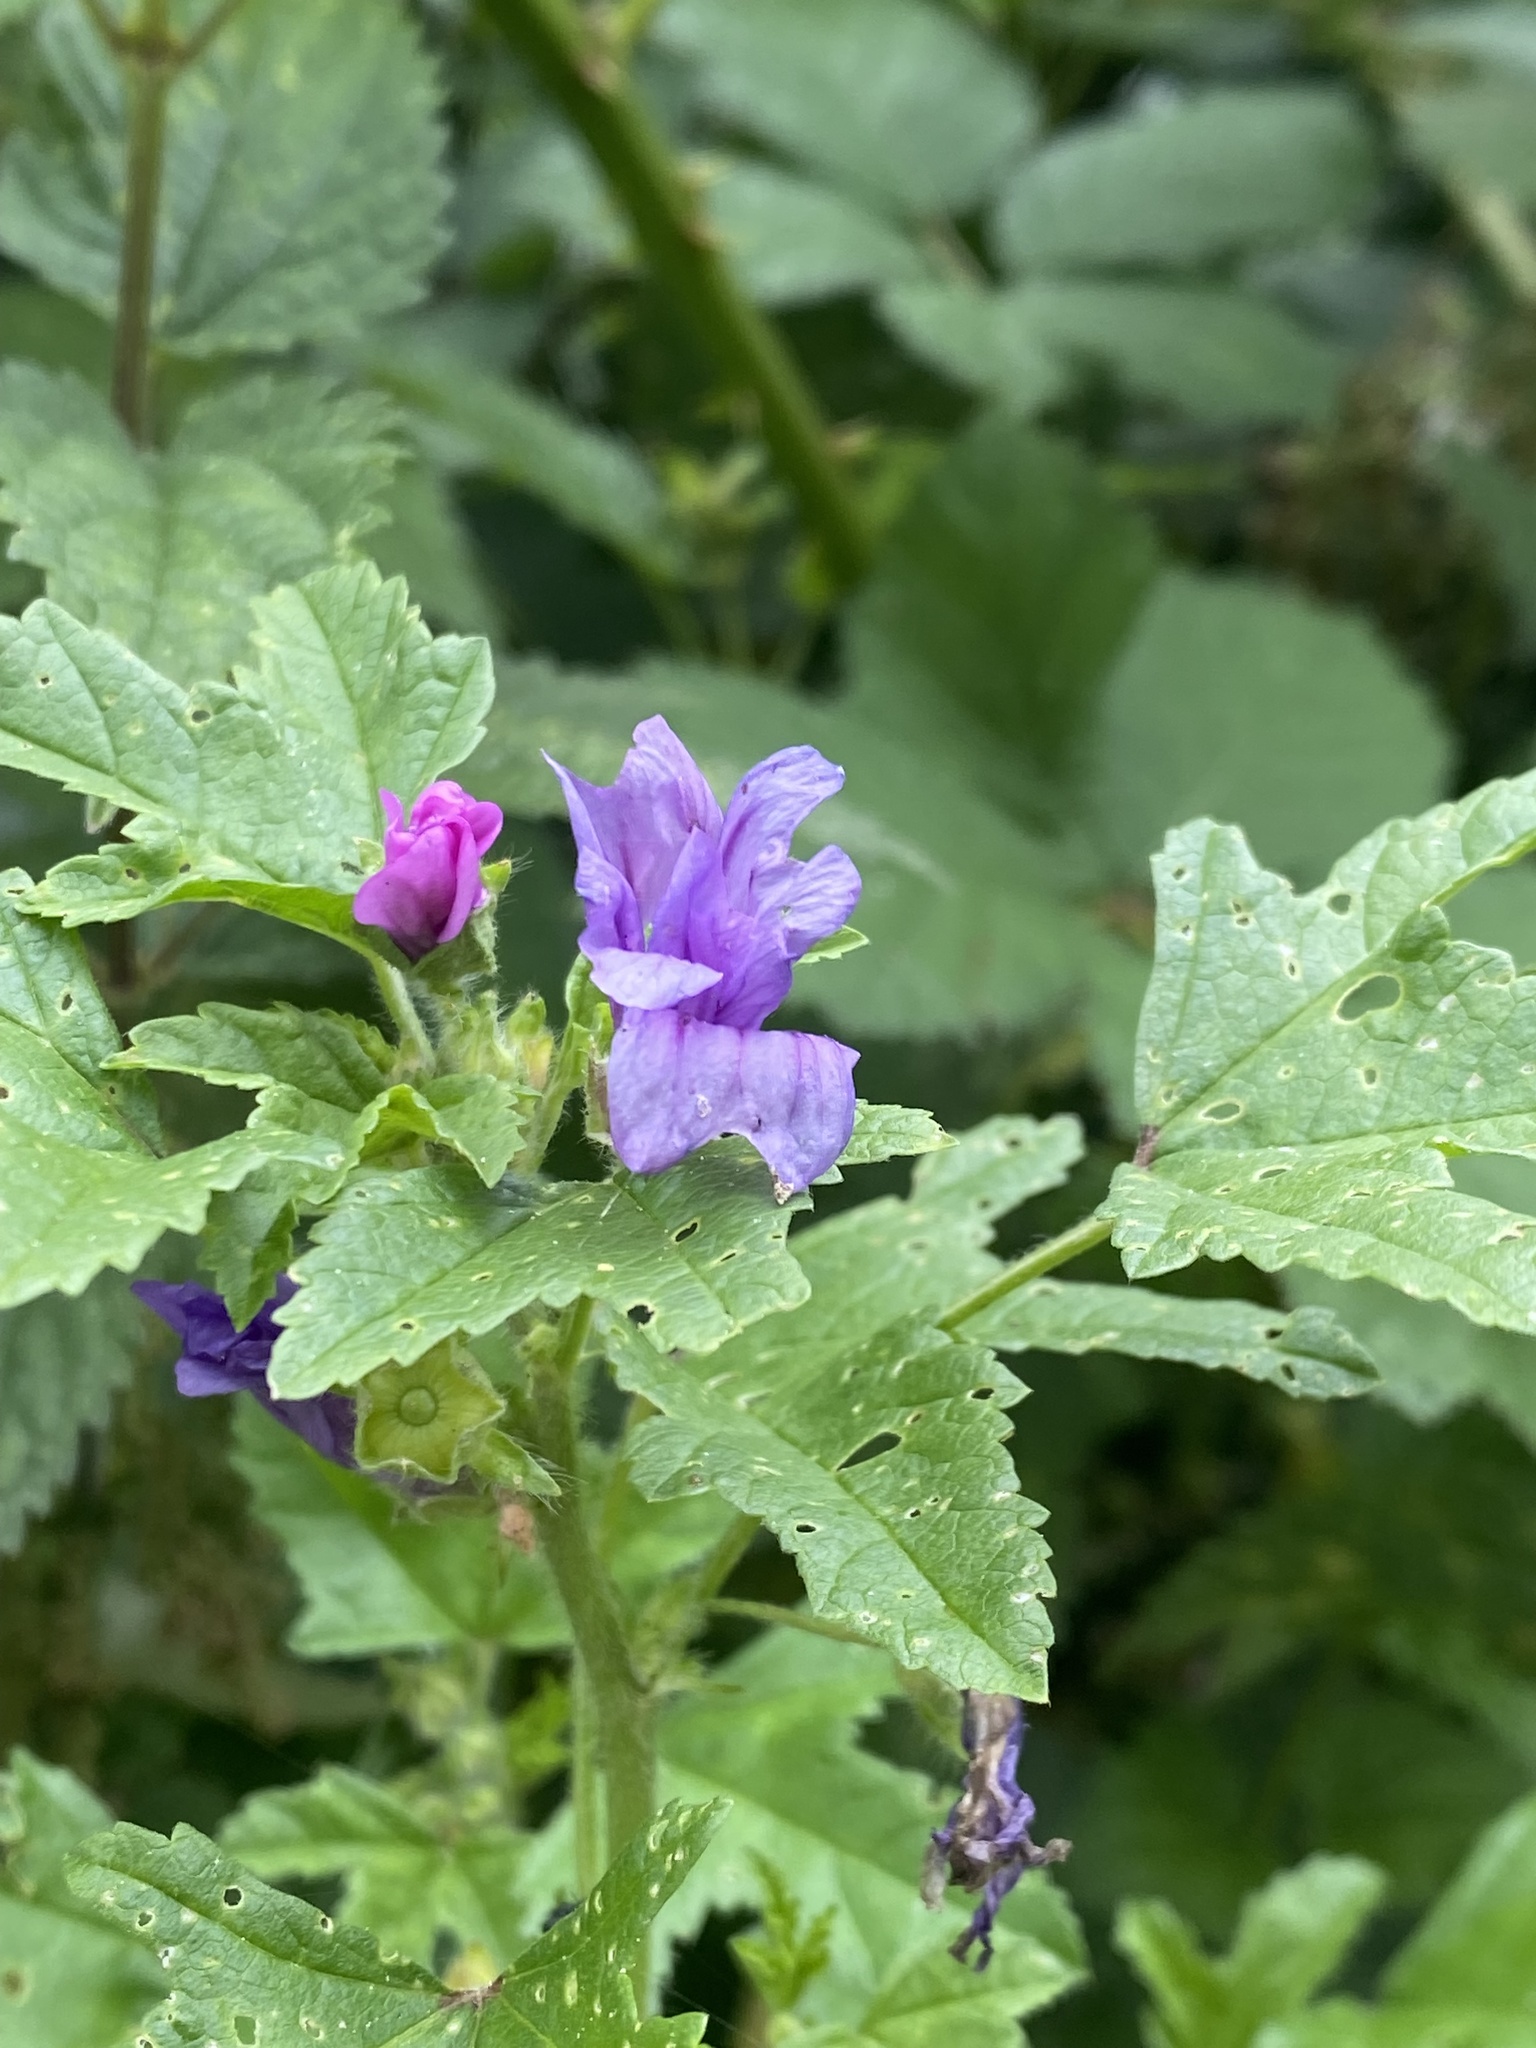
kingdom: Plantae
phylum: Tracheophyta
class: Magnoliopsida
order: Malvales
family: Malvaceae
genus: Malva
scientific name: Malva sylvestris
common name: Common mallow
